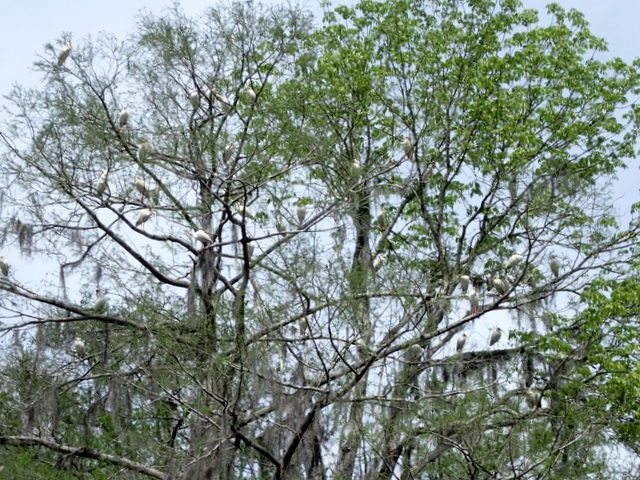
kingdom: Animalia
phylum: Chordata
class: Aves
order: Pelecaniformes
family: Threskiornithidae
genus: Eudocimus
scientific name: Eudocimus albus
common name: White ibis
